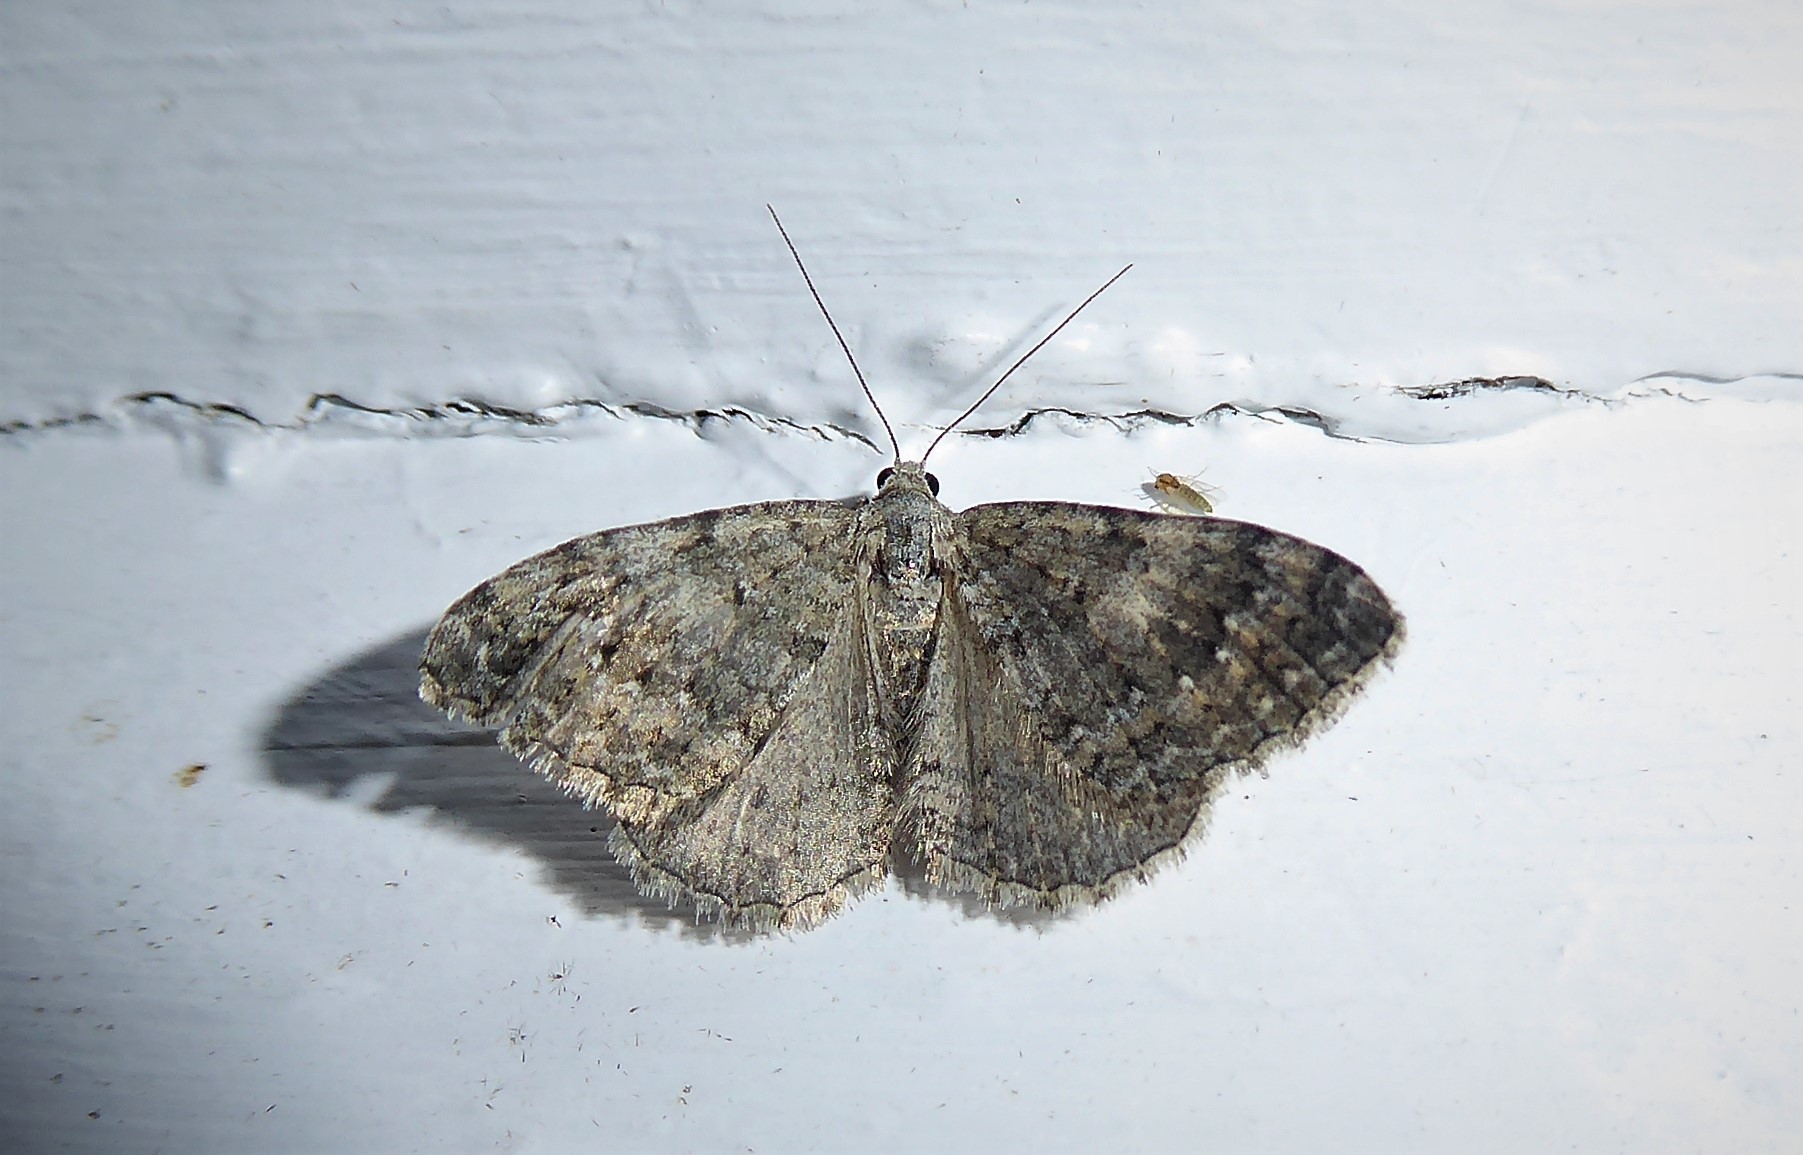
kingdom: Animalia
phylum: Arthropoda
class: Insecta
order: Lepidoptera
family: Geometridae
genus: Helastia
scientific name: Helastia corcularia
